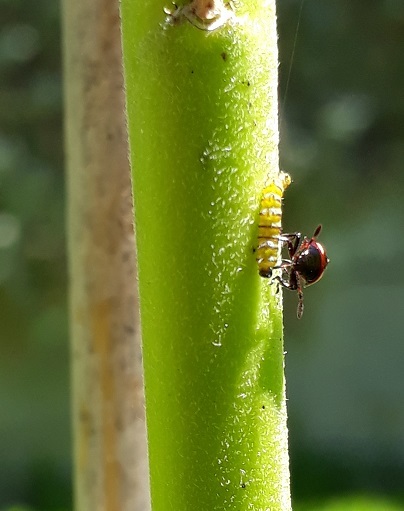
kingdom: Animalia
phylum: Arthropoda
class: Insecta
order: Hemiptera
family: Pentatomidae
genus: Cermatulus
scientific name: Cermatulus nasalis
